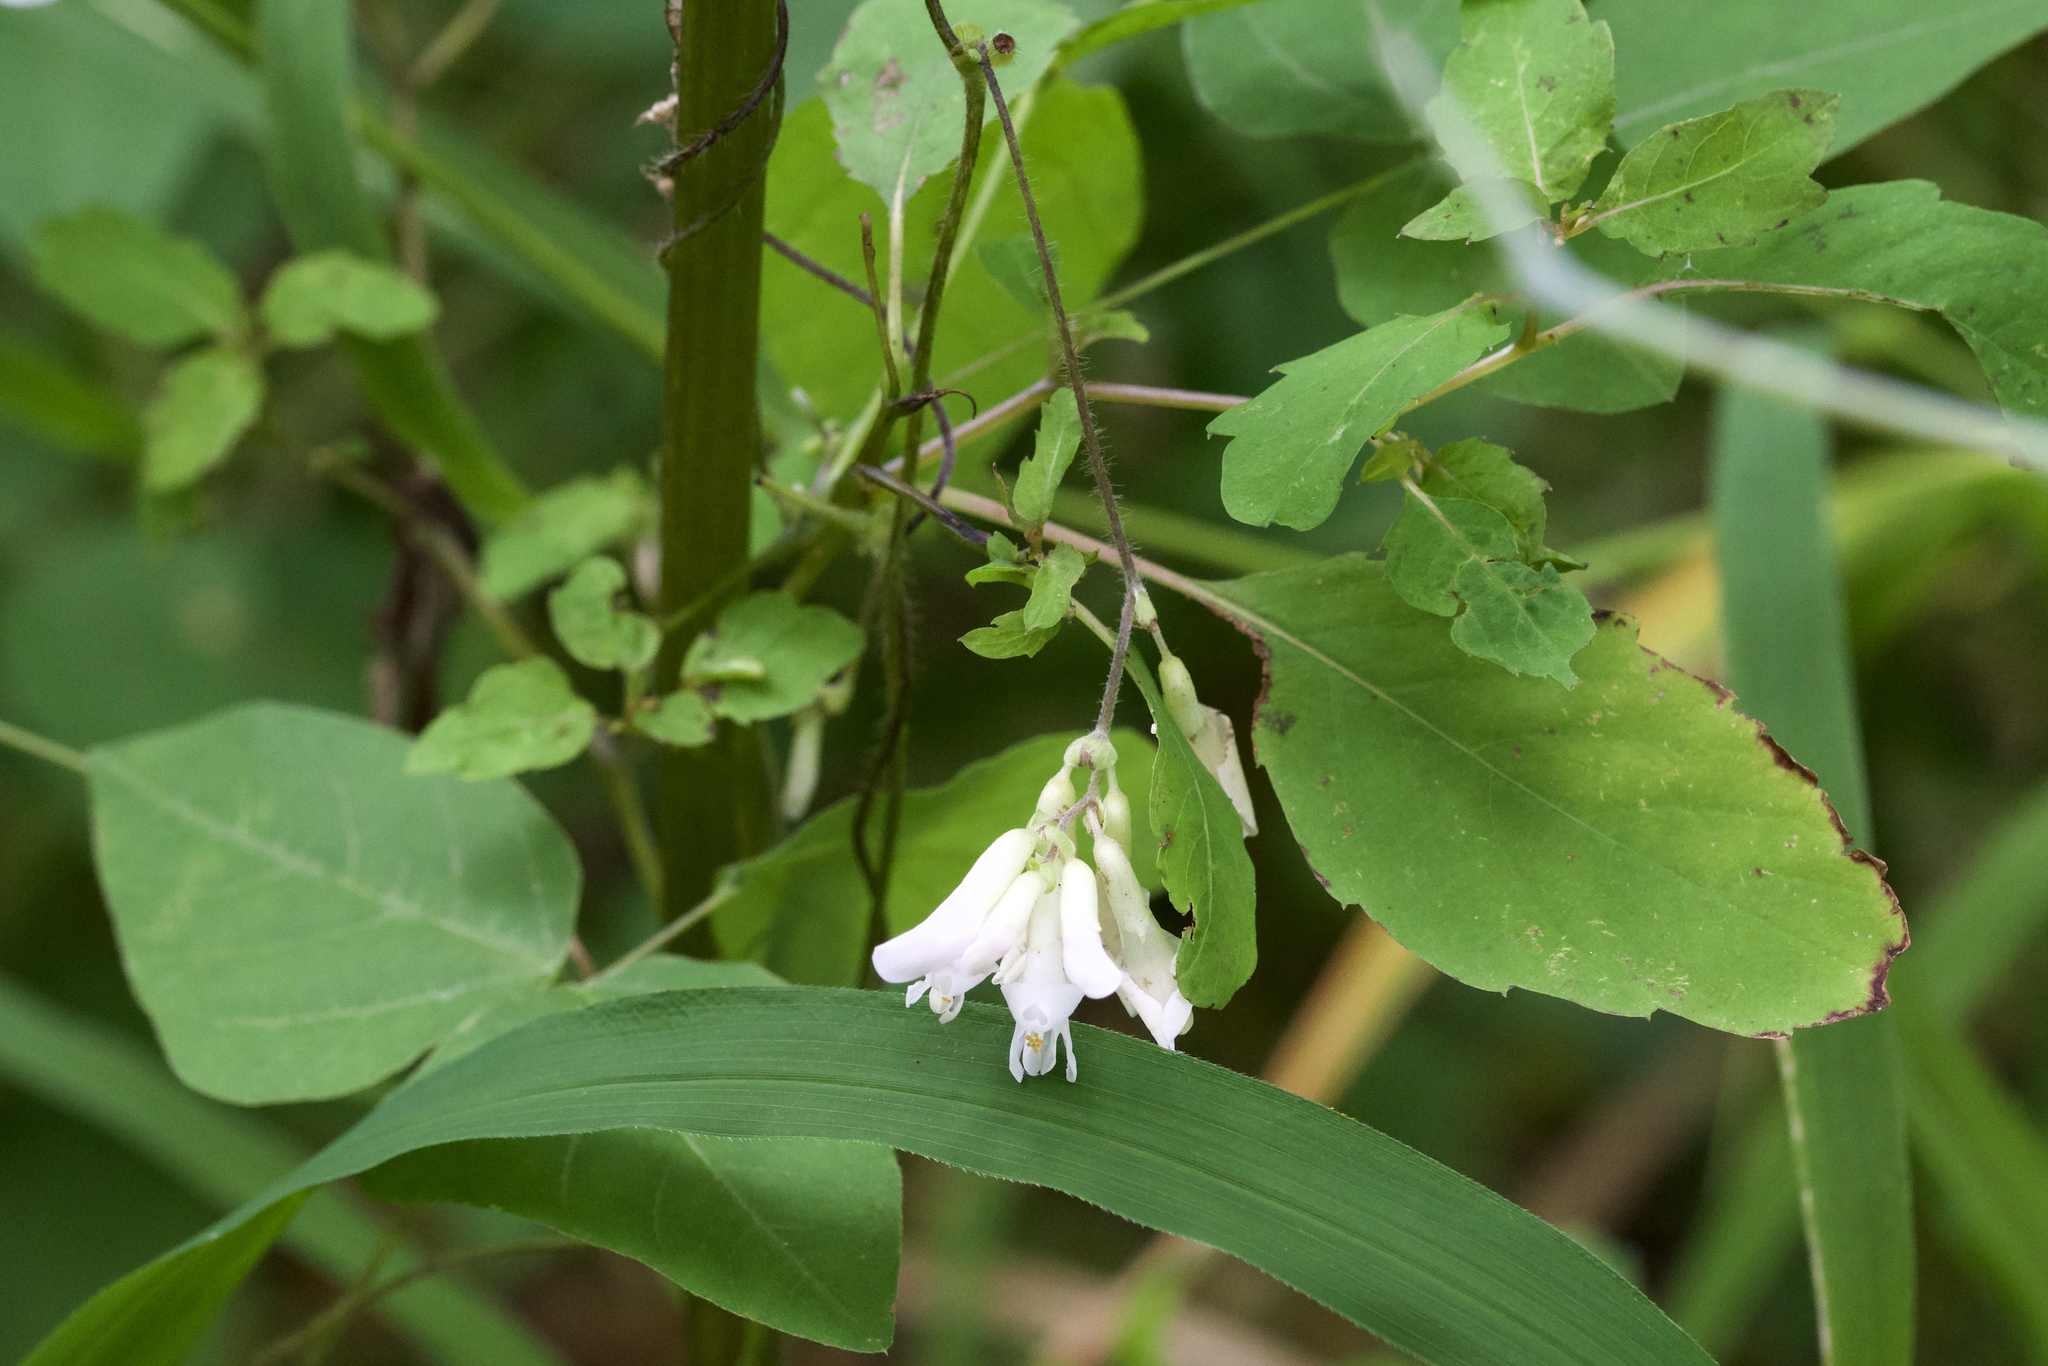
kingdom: Plantae
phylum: Tracheophyta
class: Magnoliopsida
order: Fabales
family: Fabaceae
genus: Amphicarpaea
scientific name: Amphicarpaea bracteata
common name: American hog peanut
